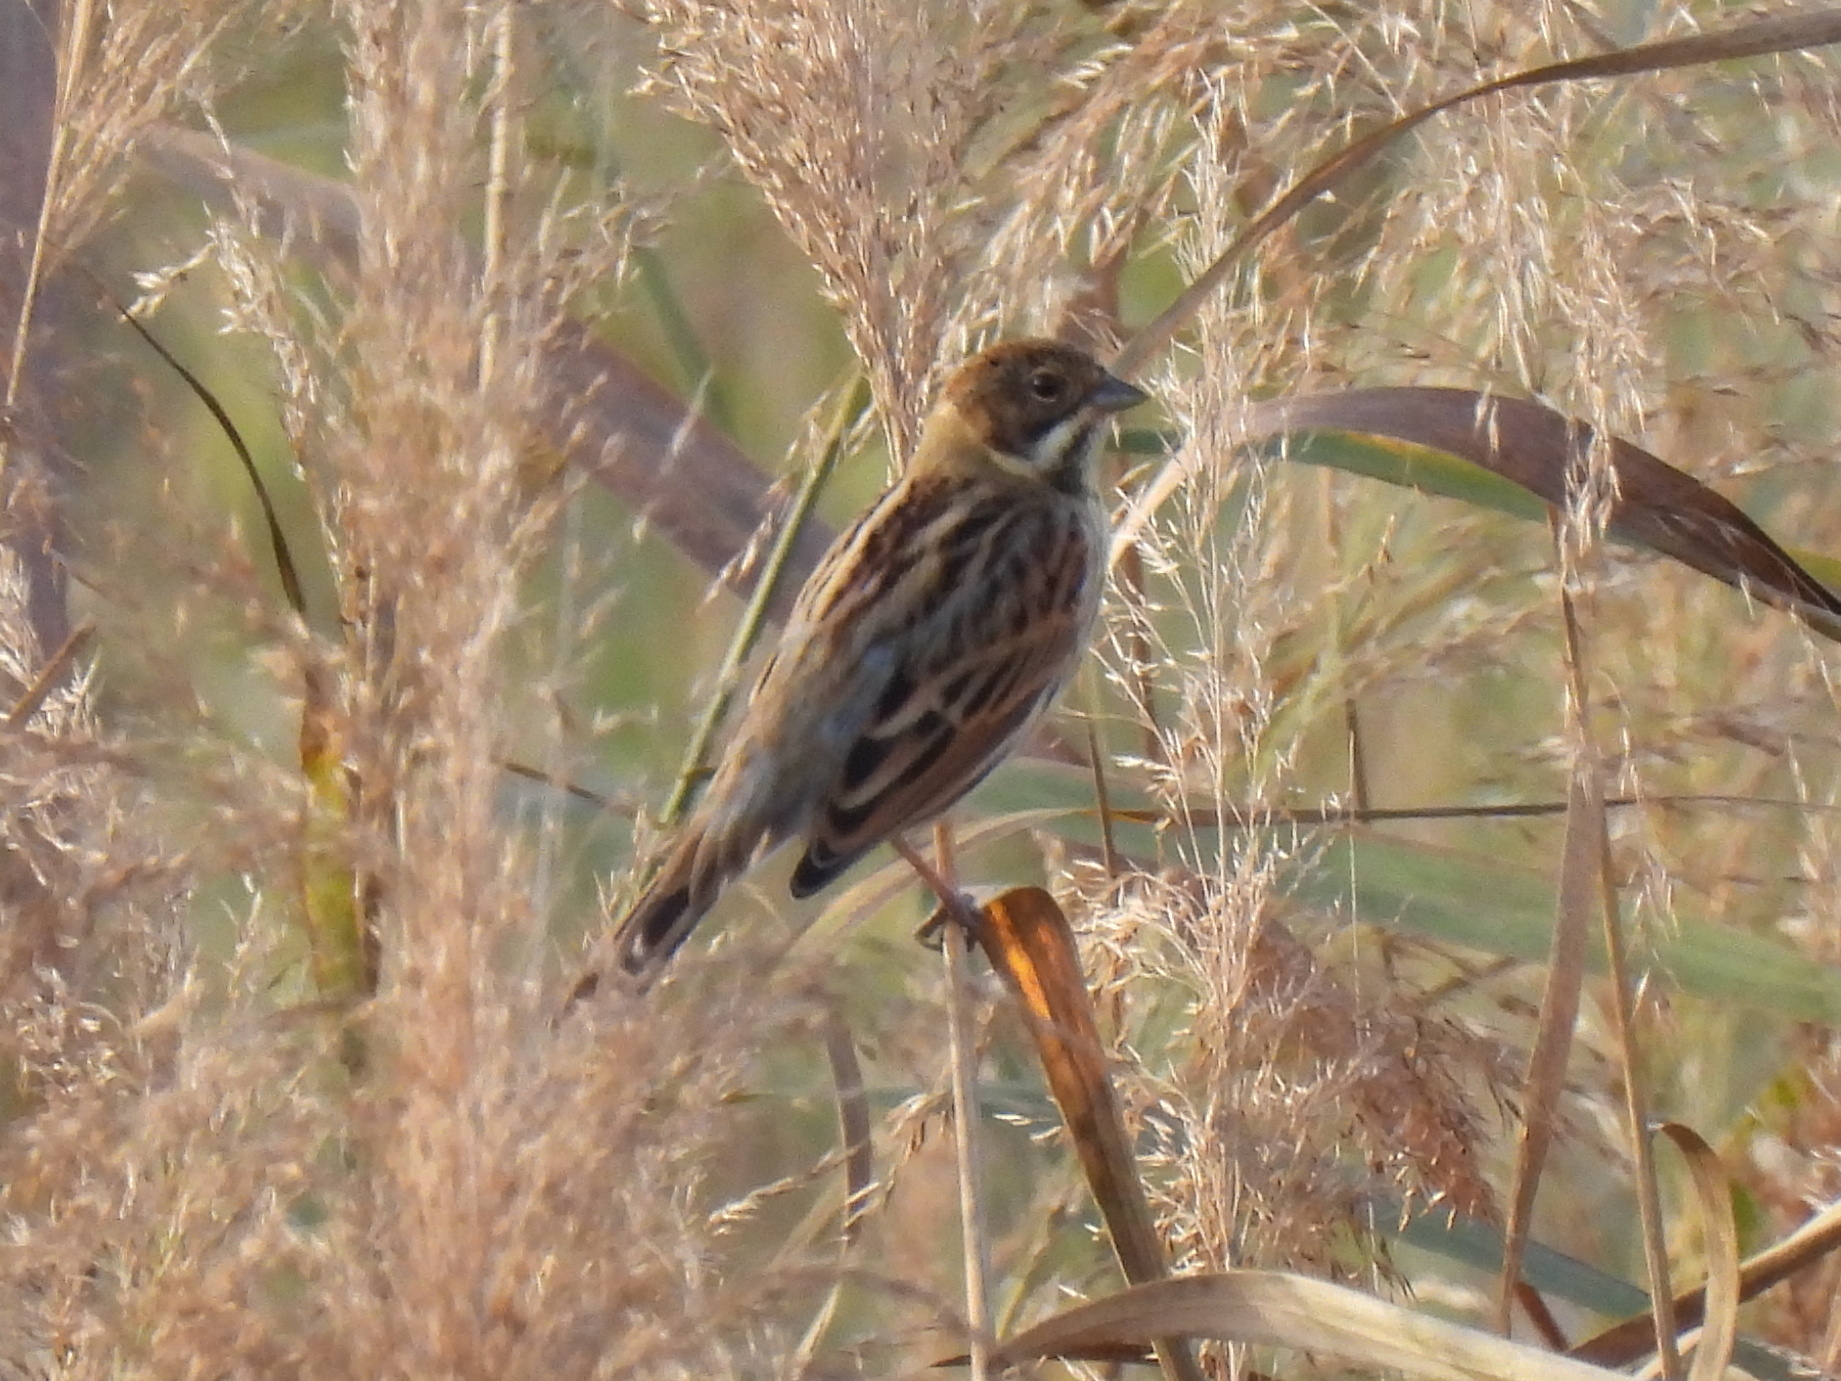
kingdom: Animalia
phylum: Chordata
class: Aves
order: Passeriformes
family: Emberizidae
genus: Emberiza
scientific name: Emberiza schoeniclus
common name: Reed bunting
